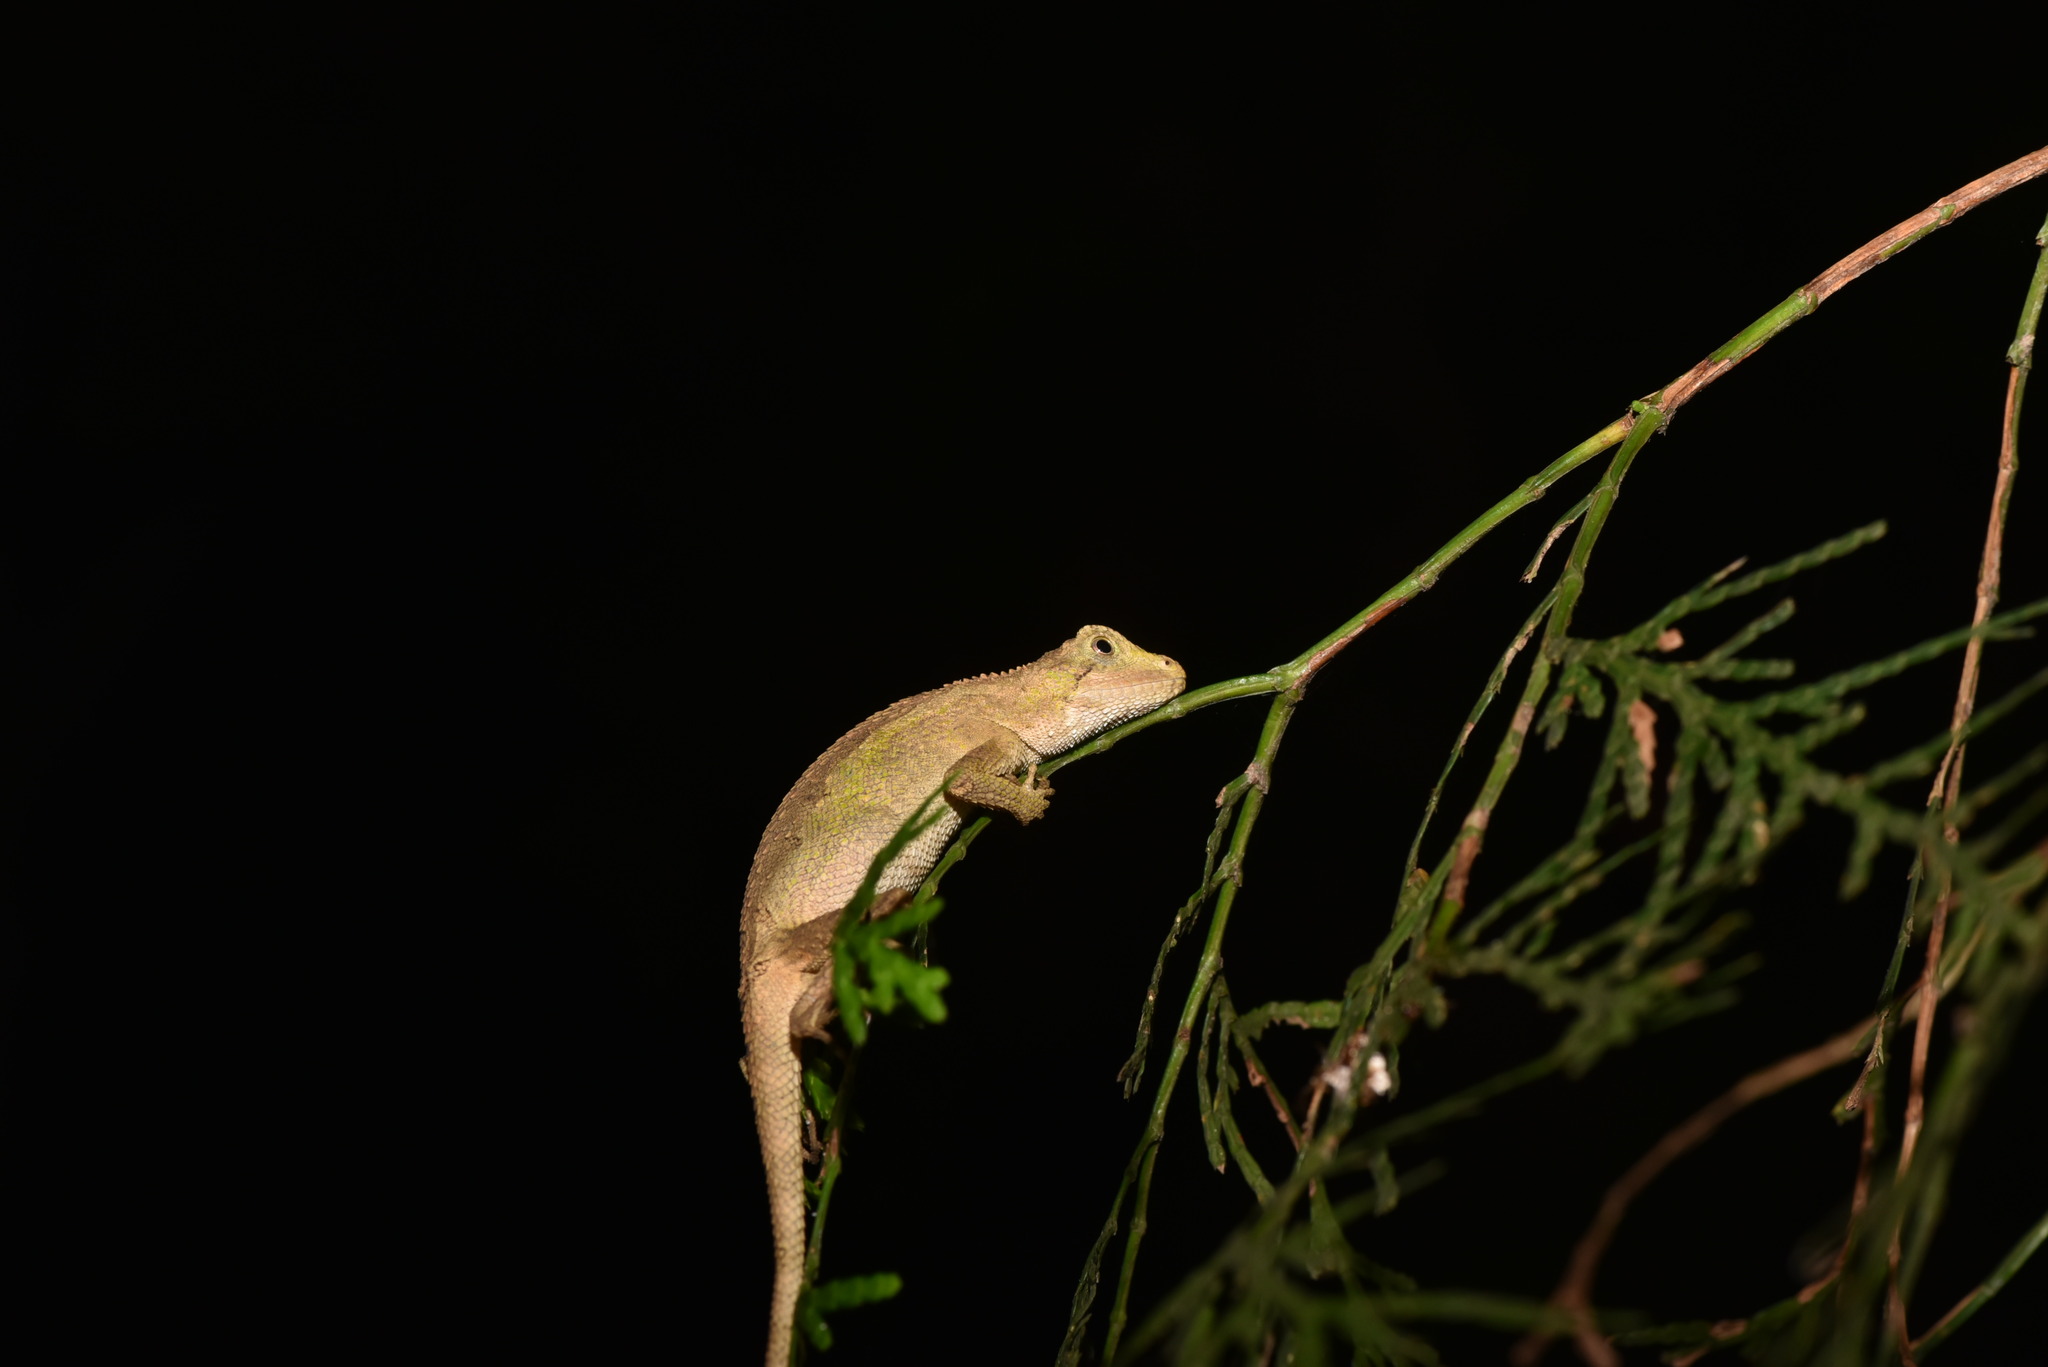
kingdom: Animalia
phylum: Chordata
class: Squamata
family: Agamidae
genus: Diploderma
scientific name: Diploderma swinhonis
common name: Taiwan japalure
